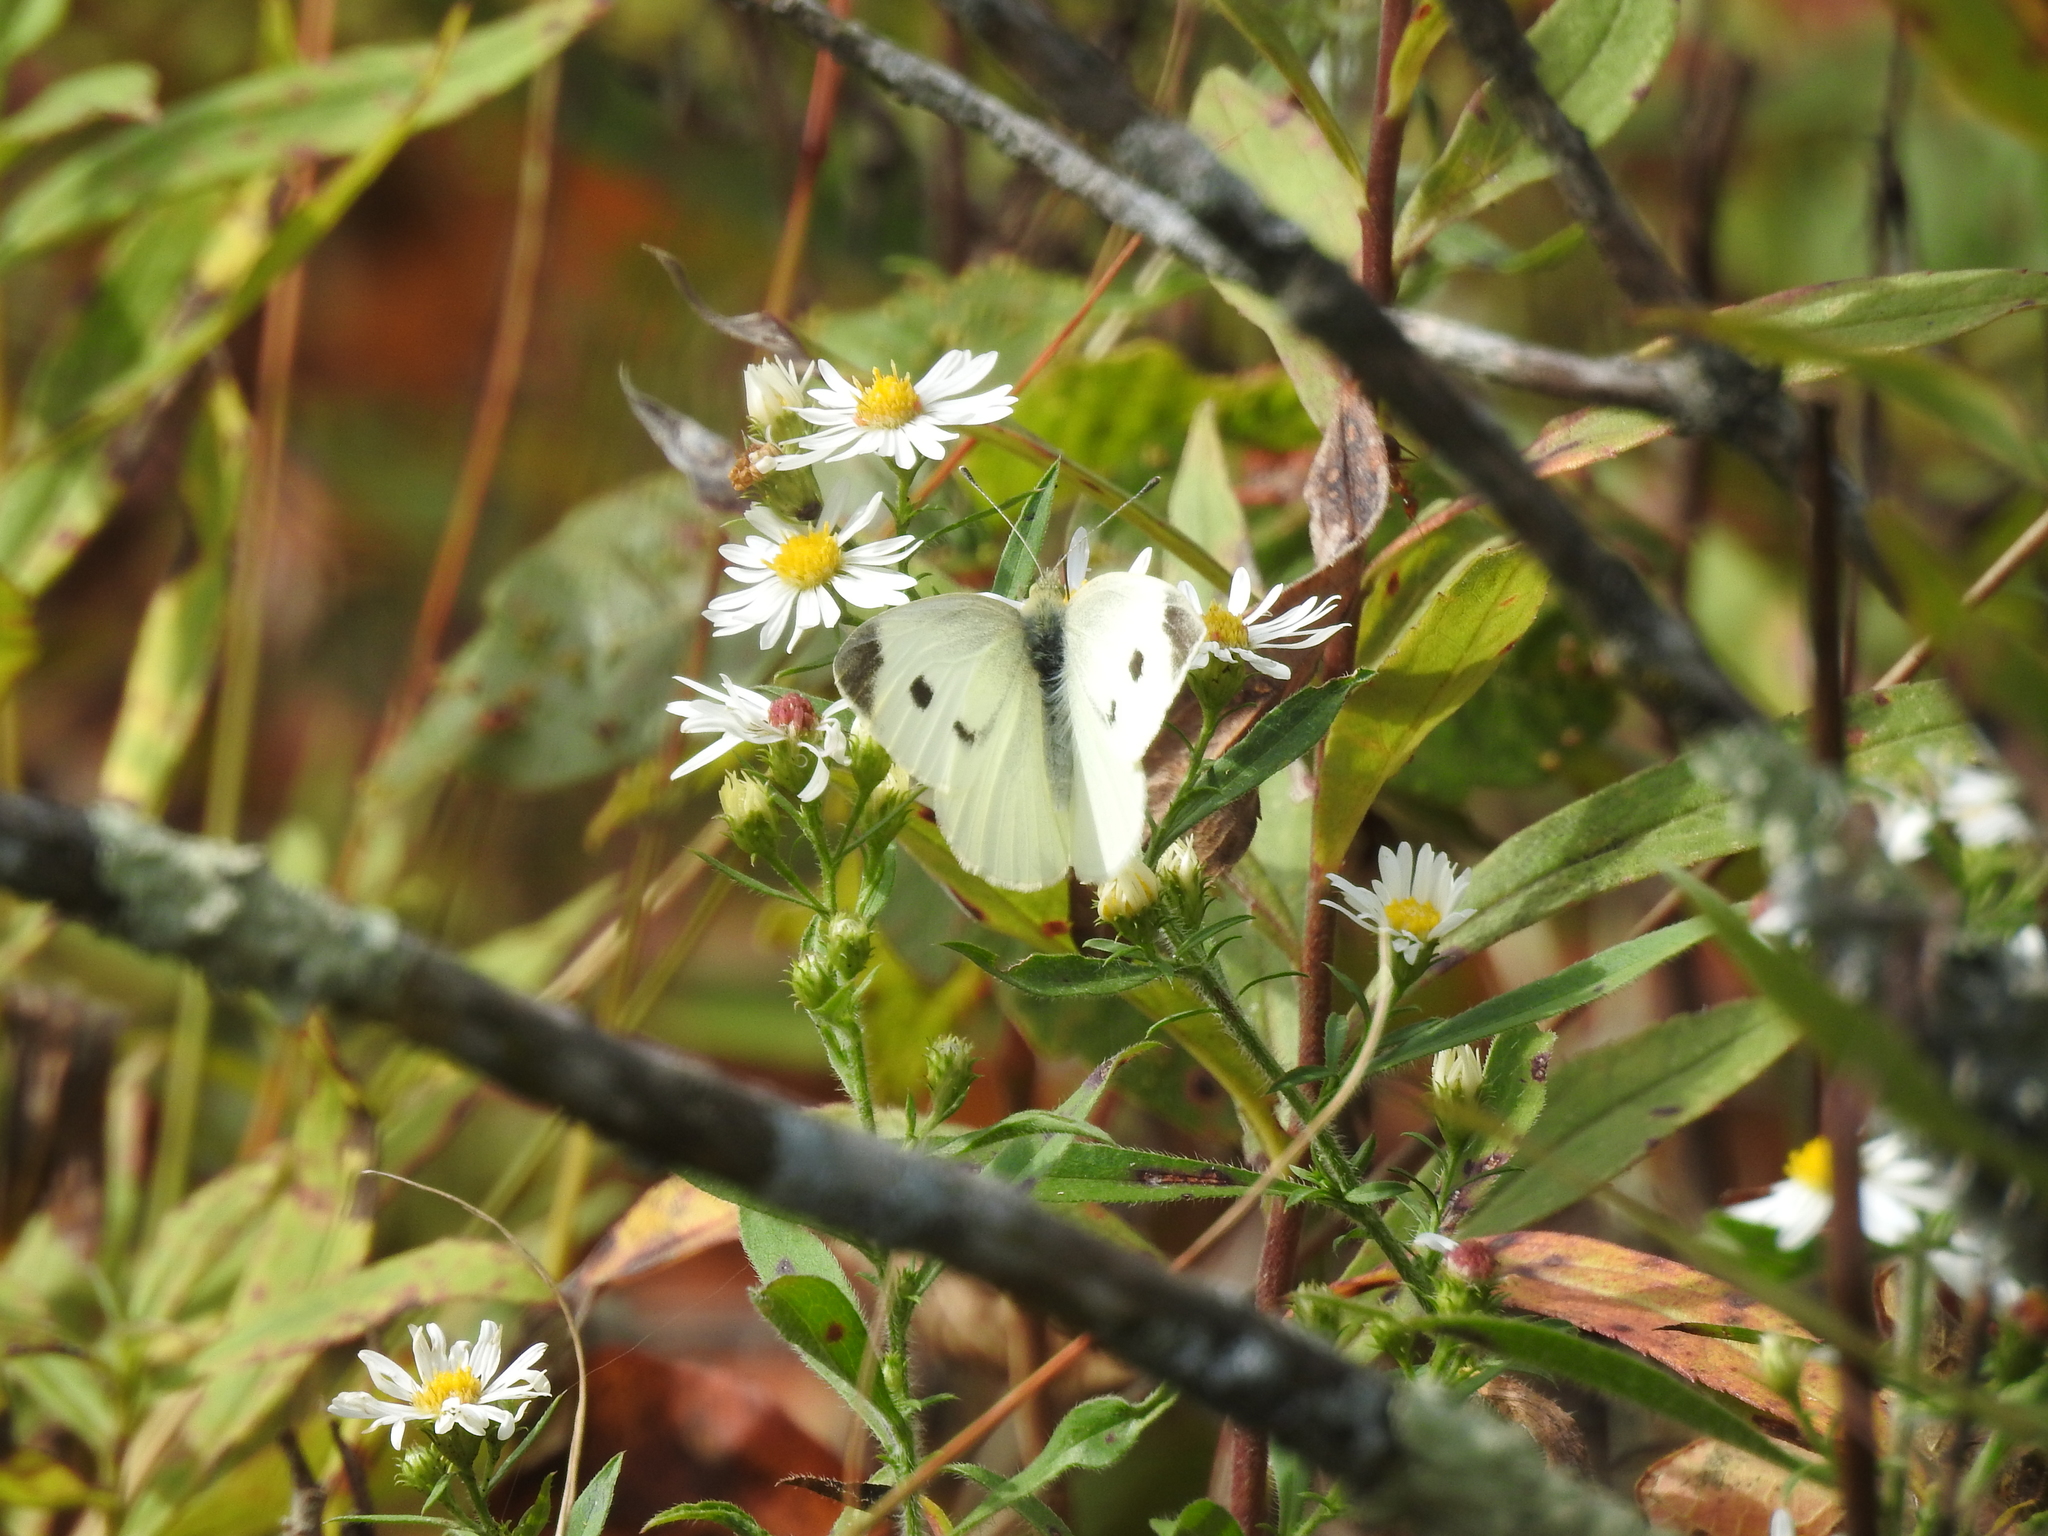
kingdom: Animalia
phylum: Arthropoda
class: Insecta
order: Lepidoptera
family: Pieridae
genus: Pieris
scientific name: Pieris rapae
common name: Small white
